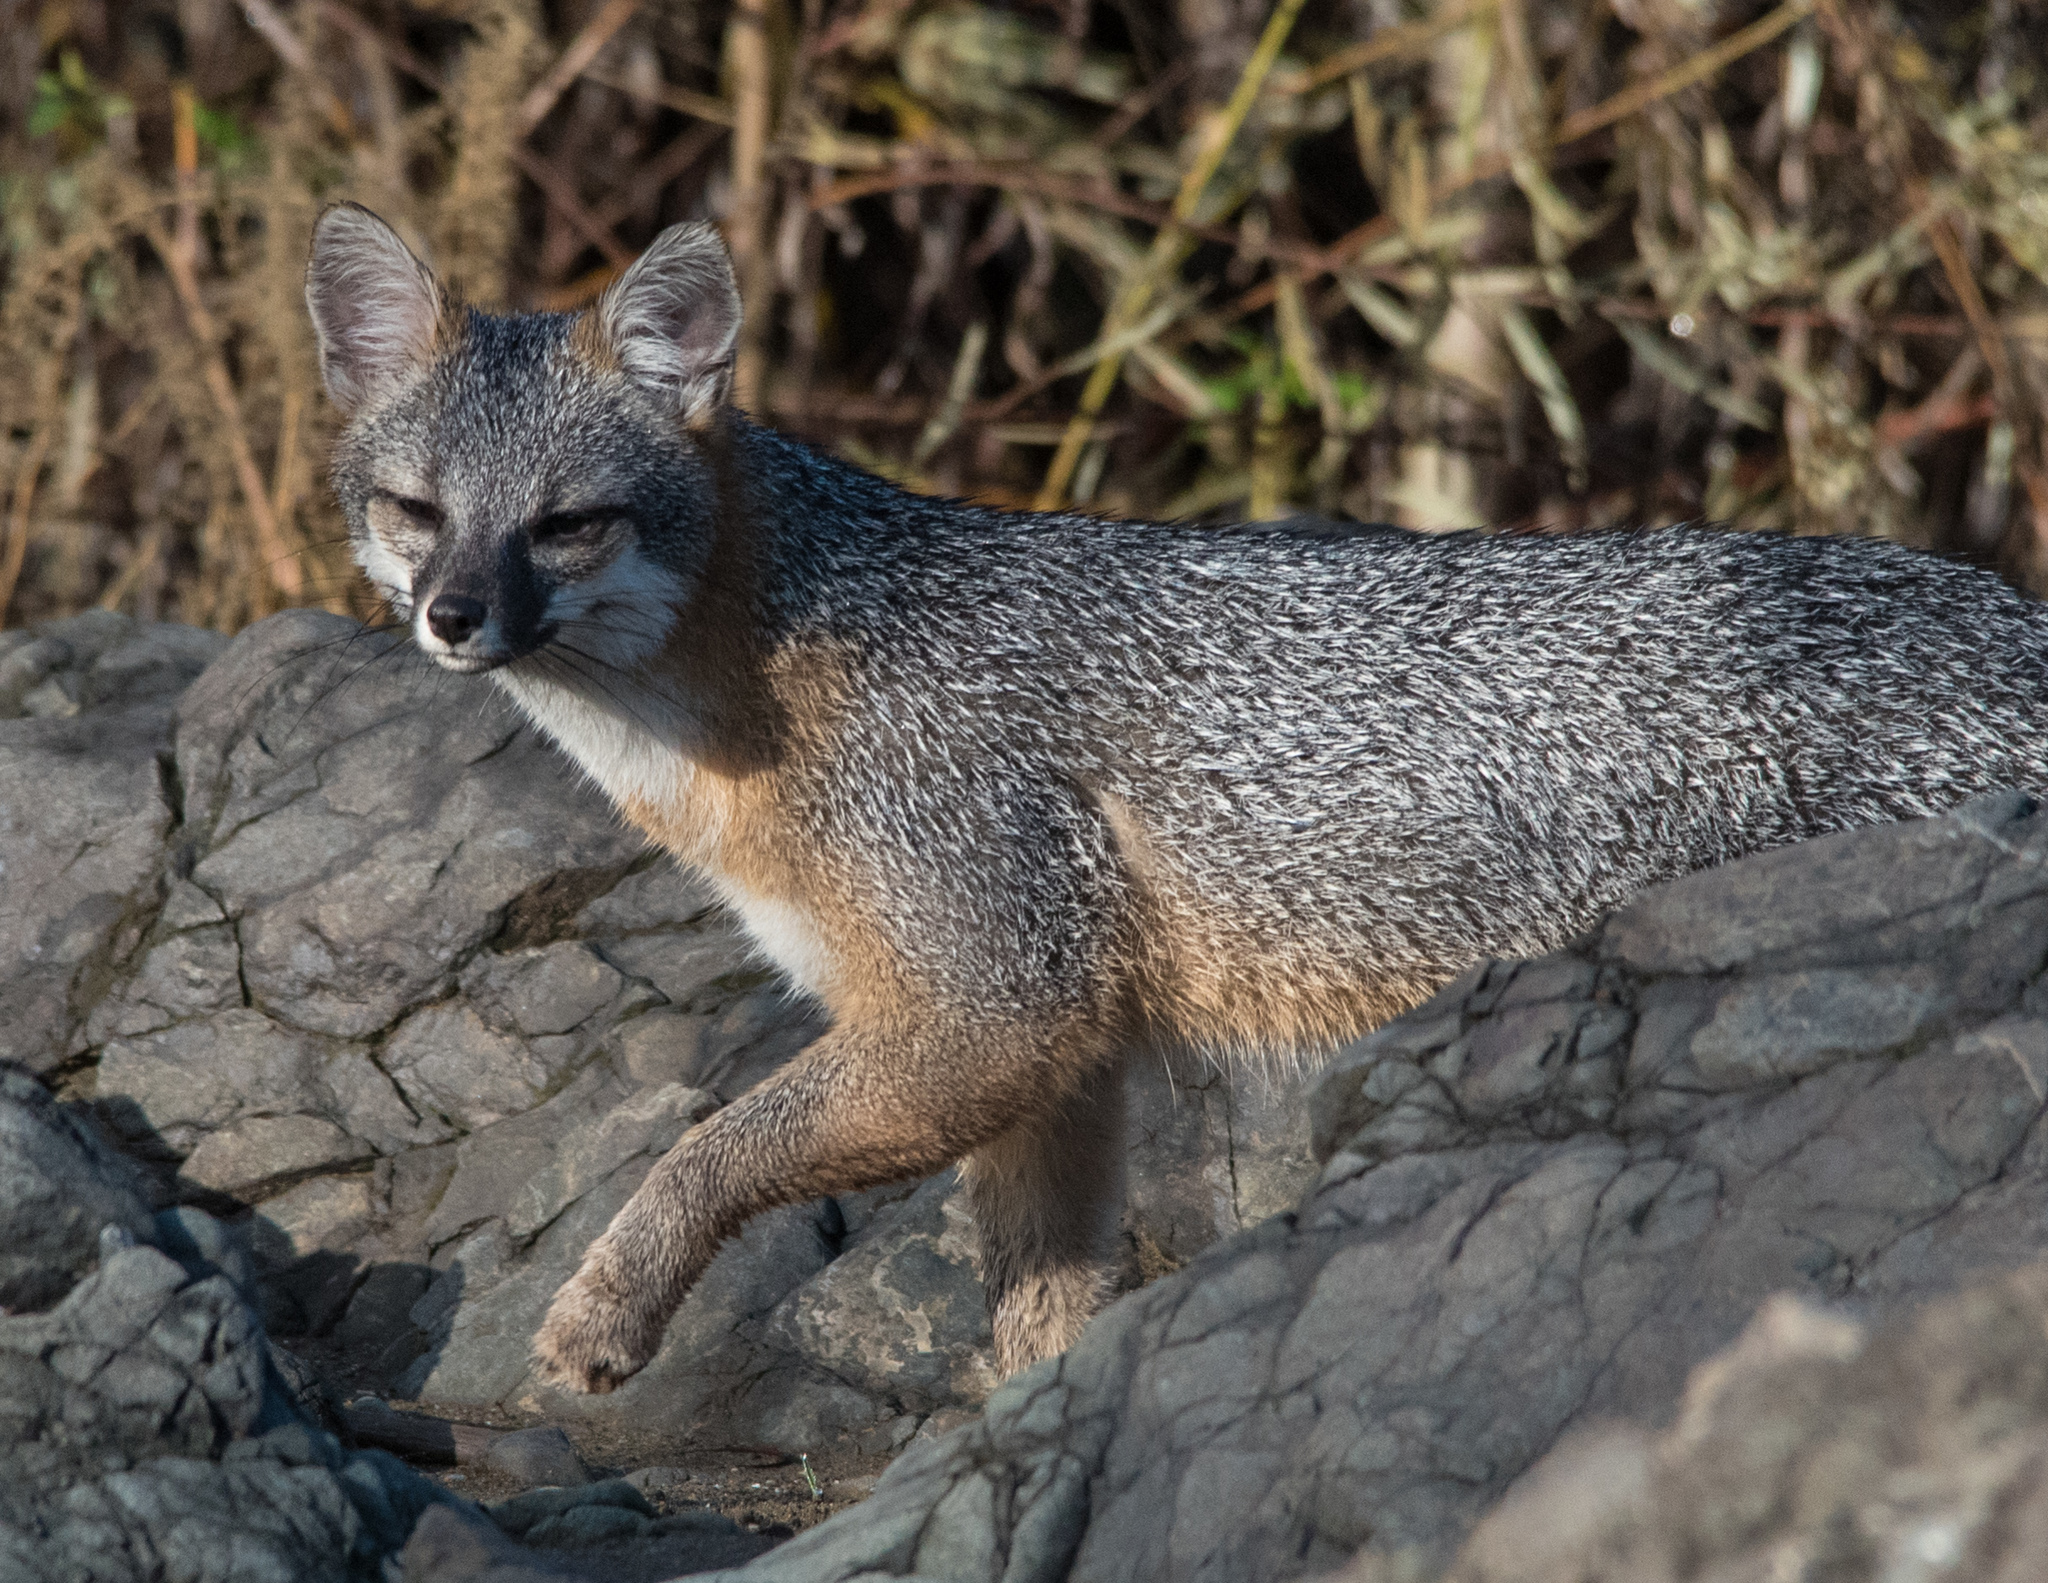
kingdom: Animalia
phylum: Chordata
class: Mammalia
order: Carnivora
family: Canidae
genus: Urocyon
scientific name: Urocyon cinereoargenteus
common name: Gray fox
